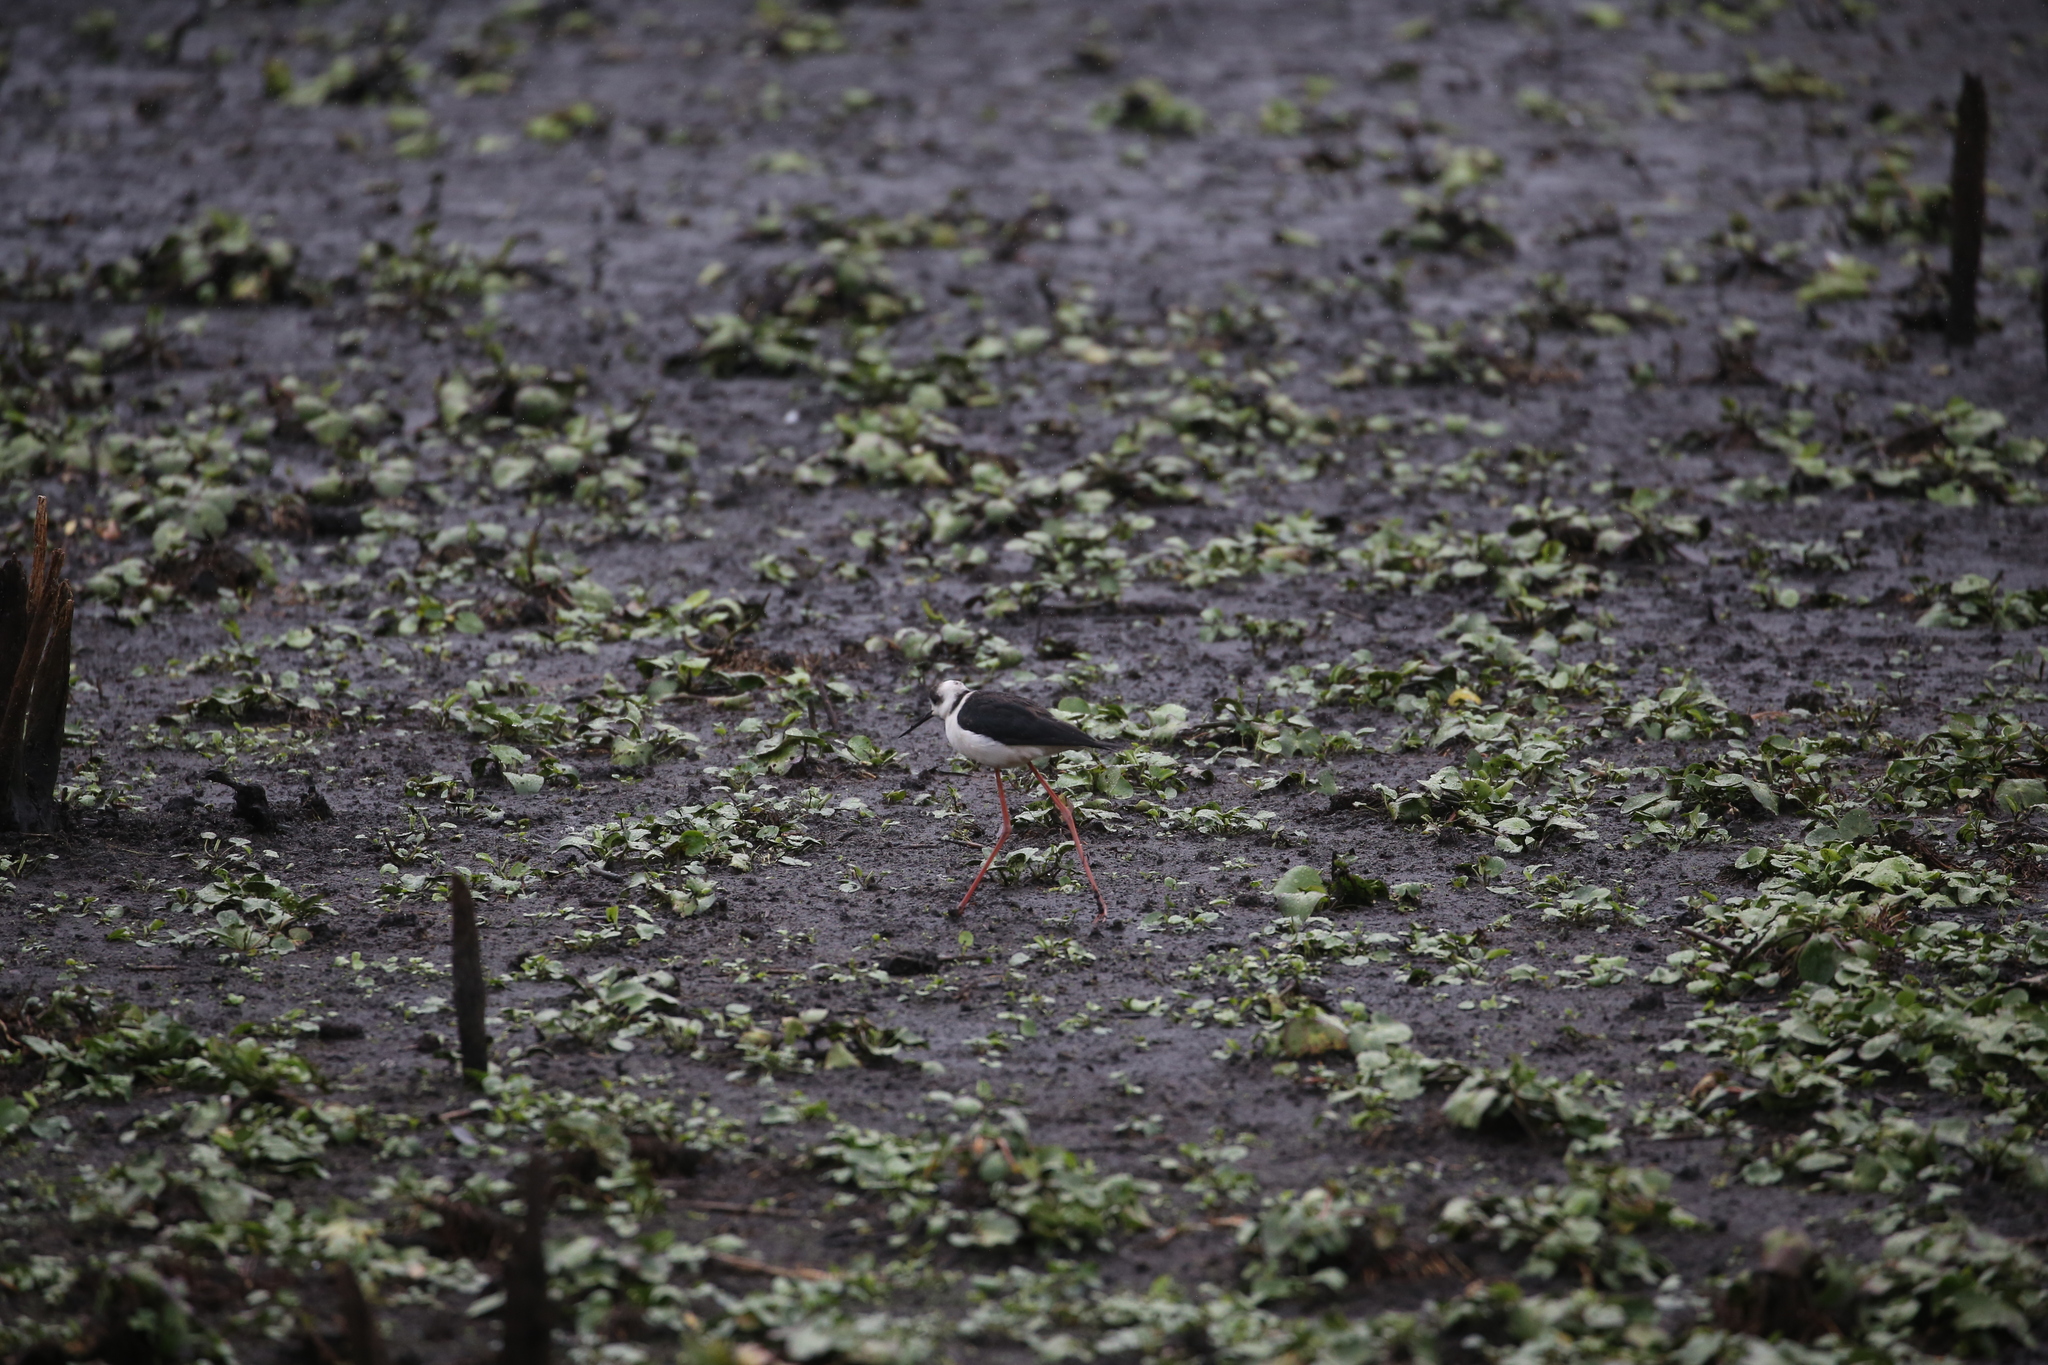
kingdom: Animalia
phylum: Chordata
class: Aves
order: Charadriiformes
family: Recurvirostridae
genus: Himantopus
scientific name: Himantopus leucocephalus
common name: White-headed stilt
